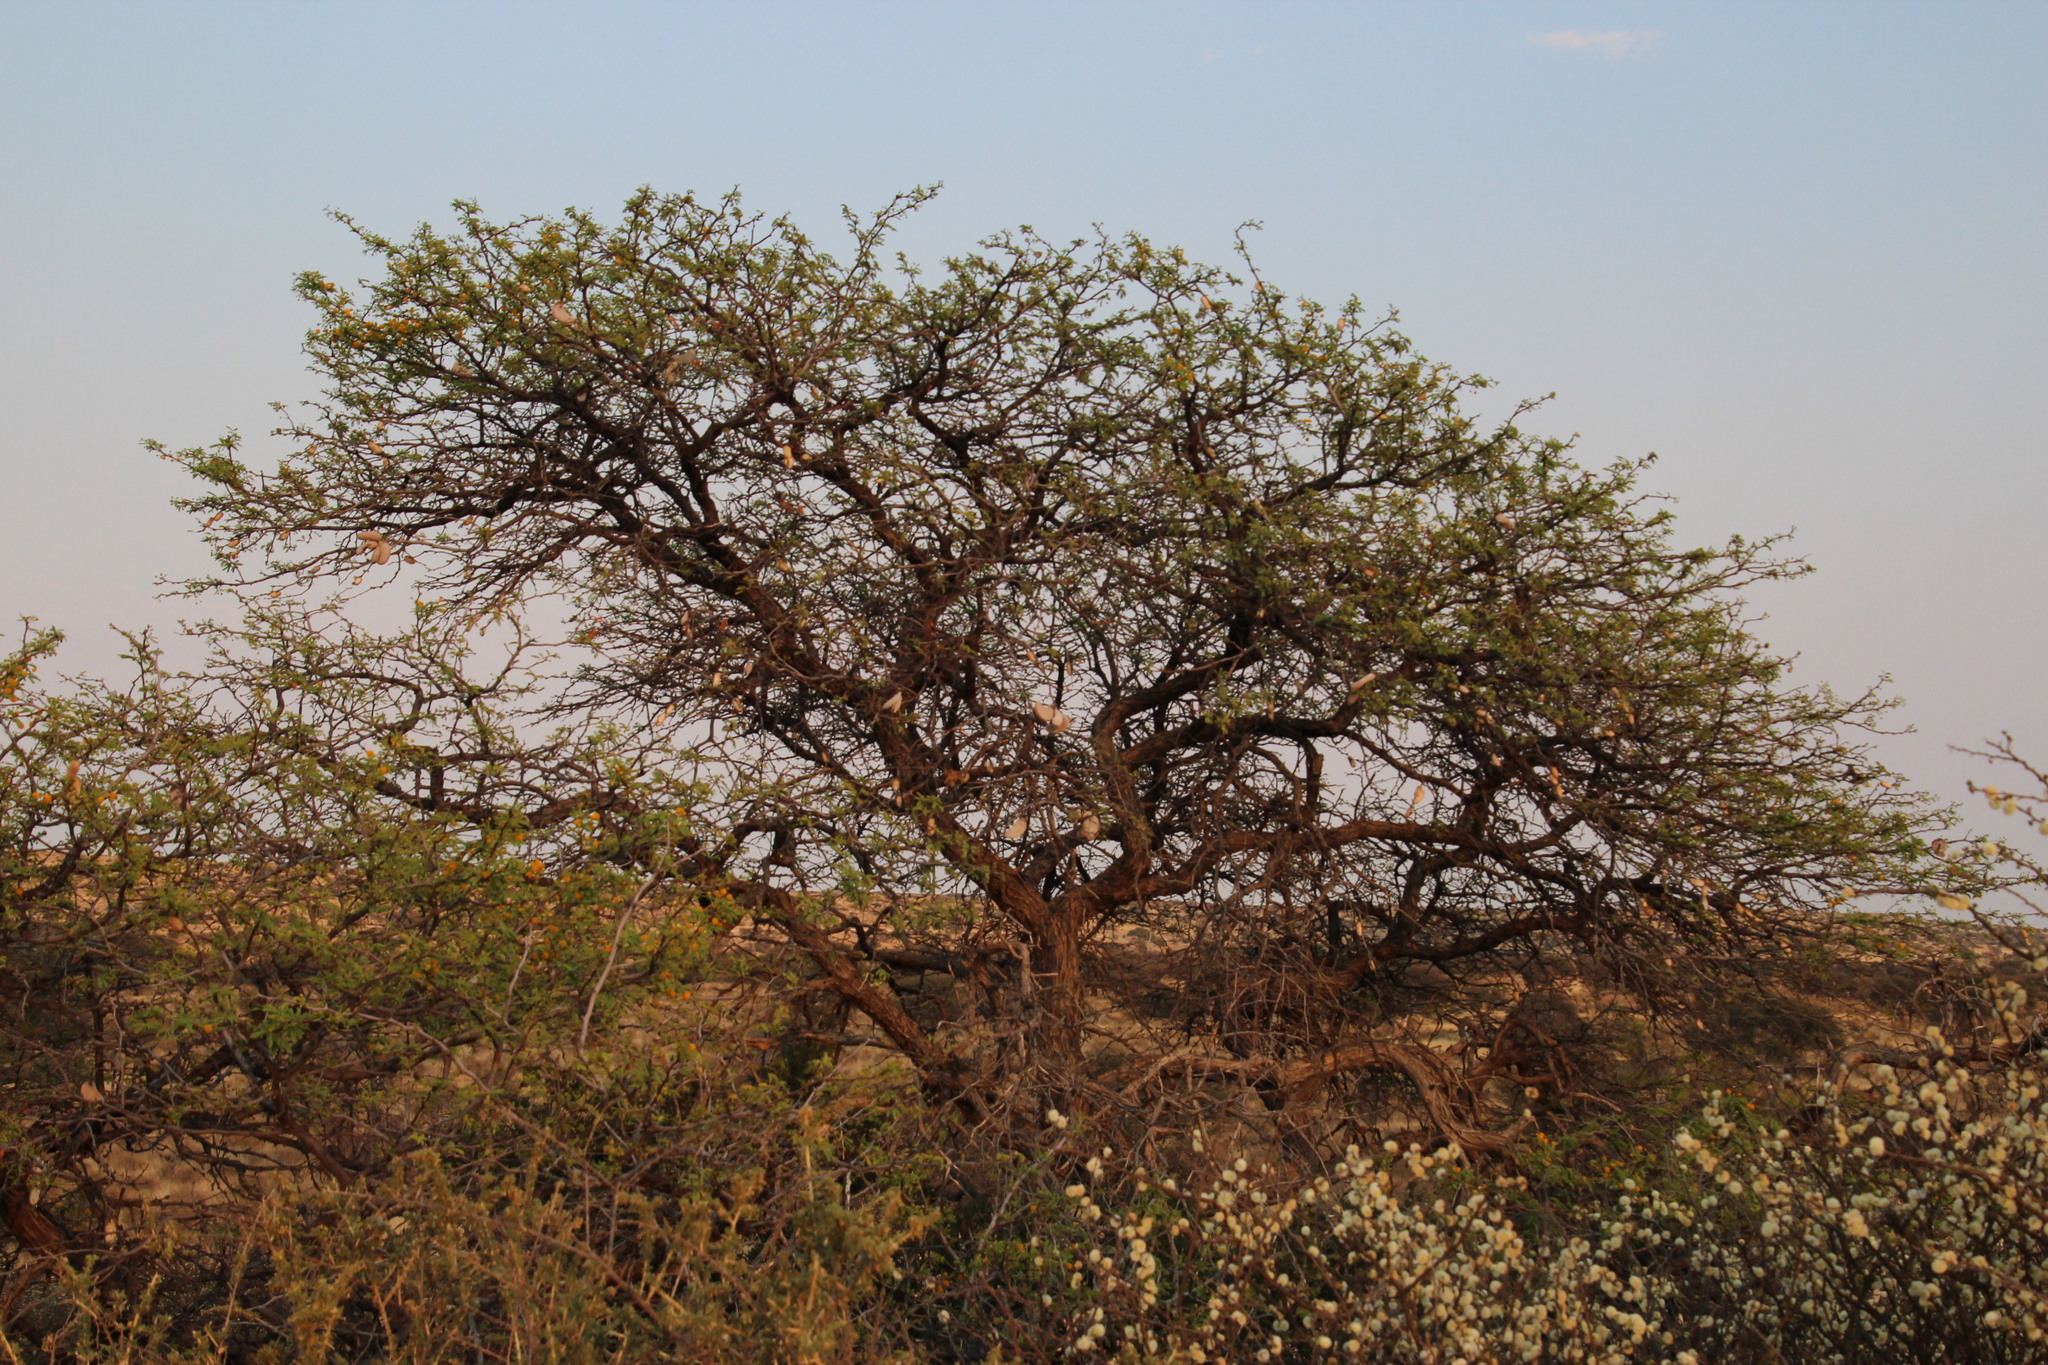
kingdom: Plantae
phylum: Tracheophyta
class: Magnoliopsida
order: Fabales
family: Fabaceae
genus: Vachellia
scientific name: Vachellia erioloba
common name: Camel thorn
